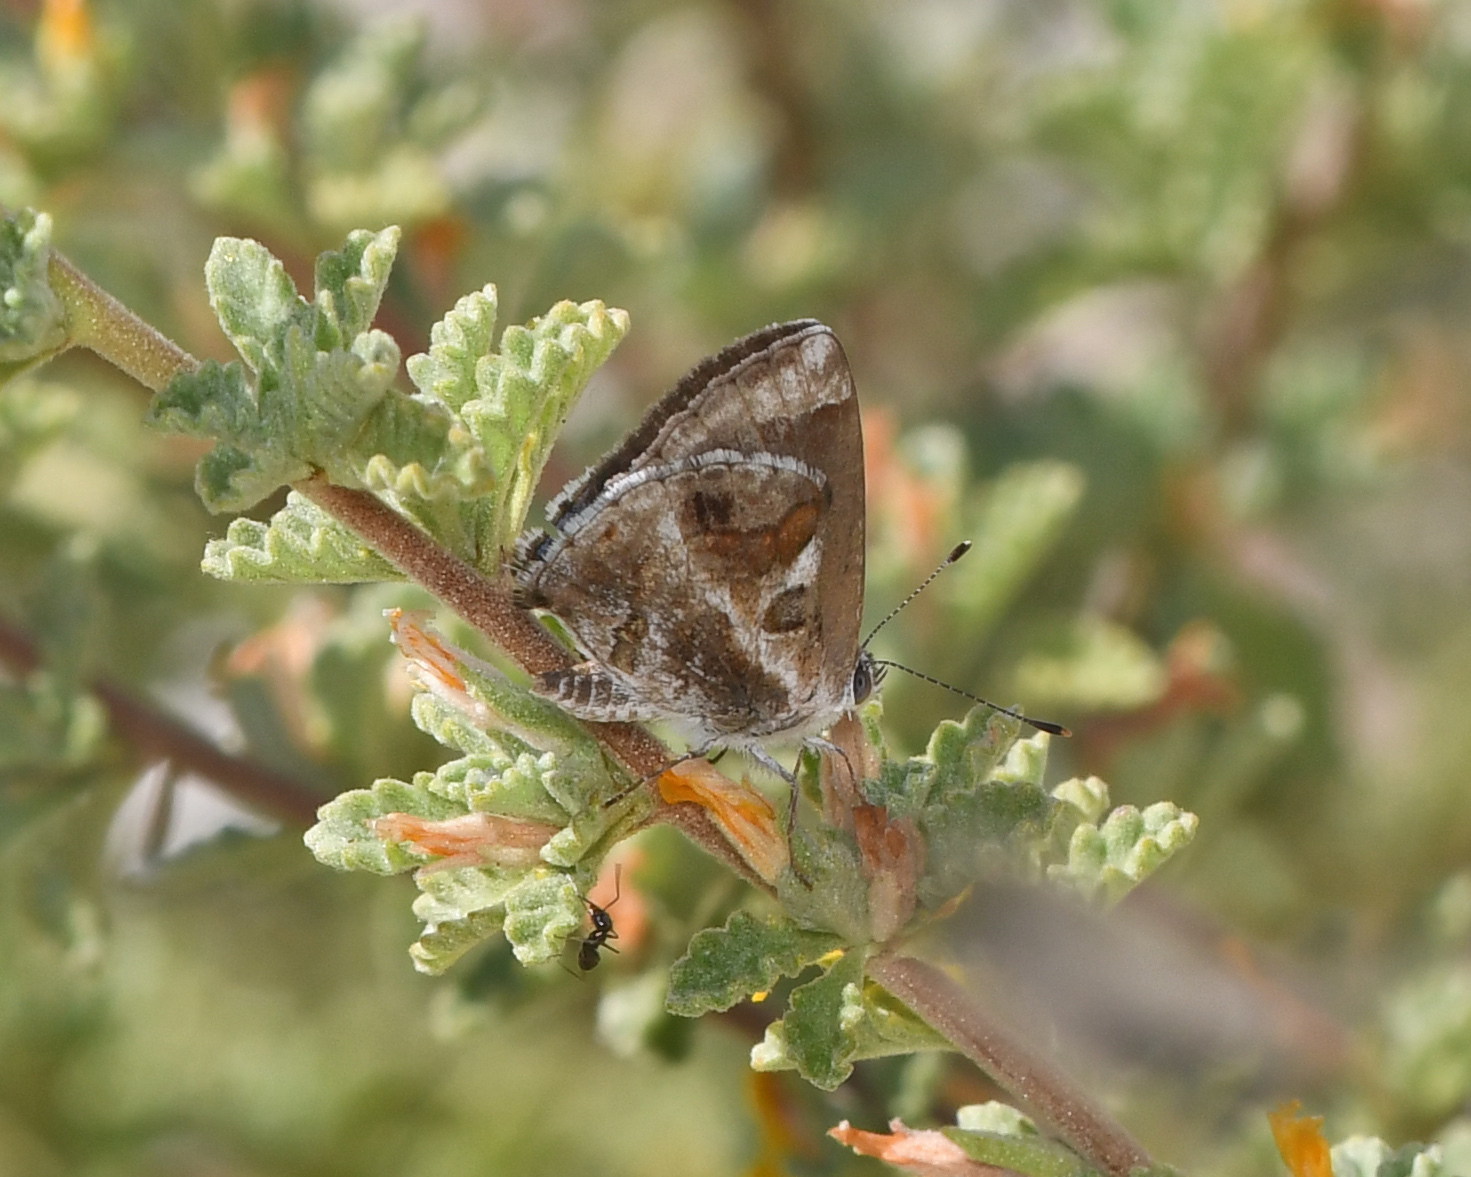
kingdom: Animalia
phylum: Arthropoda
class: Insecta
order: Lepidoptera
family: Lycaenidae
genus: Strymon
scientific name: Strymon bazochii
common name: Lantana scrub-hairstreak
